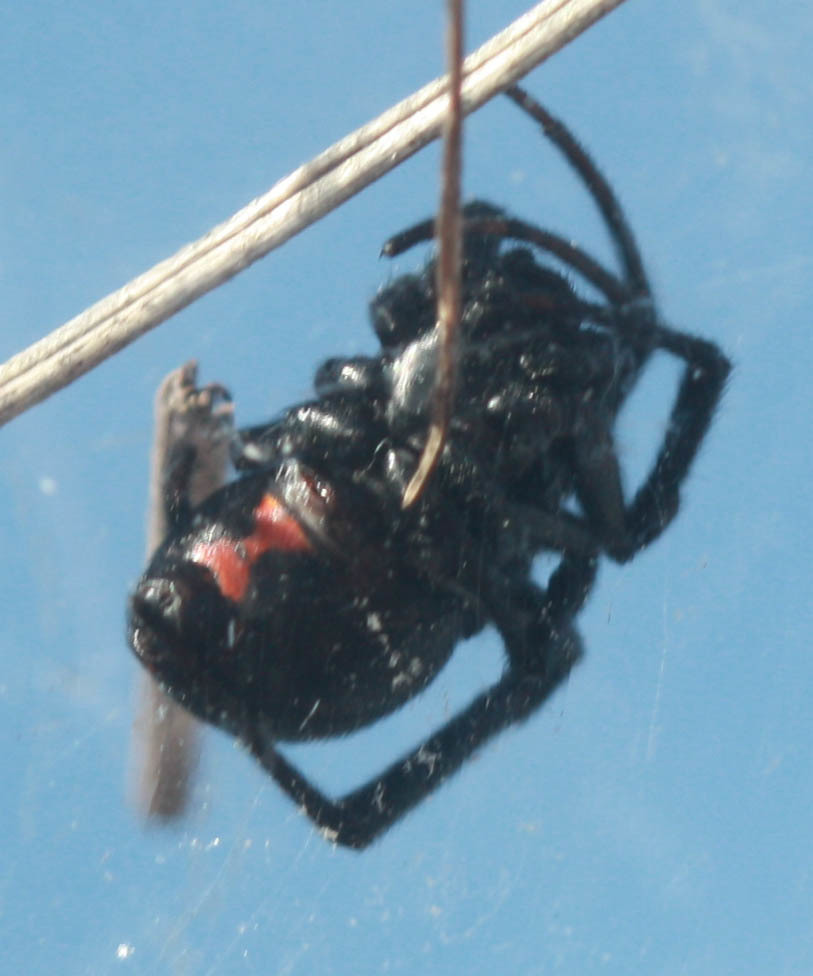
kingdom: Animalia
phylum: Arthropoda
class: Arachnida
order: Araneae
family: Theridiidae
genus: Latrodectus
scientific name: Latrodectus hesperus
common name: Western black widow
